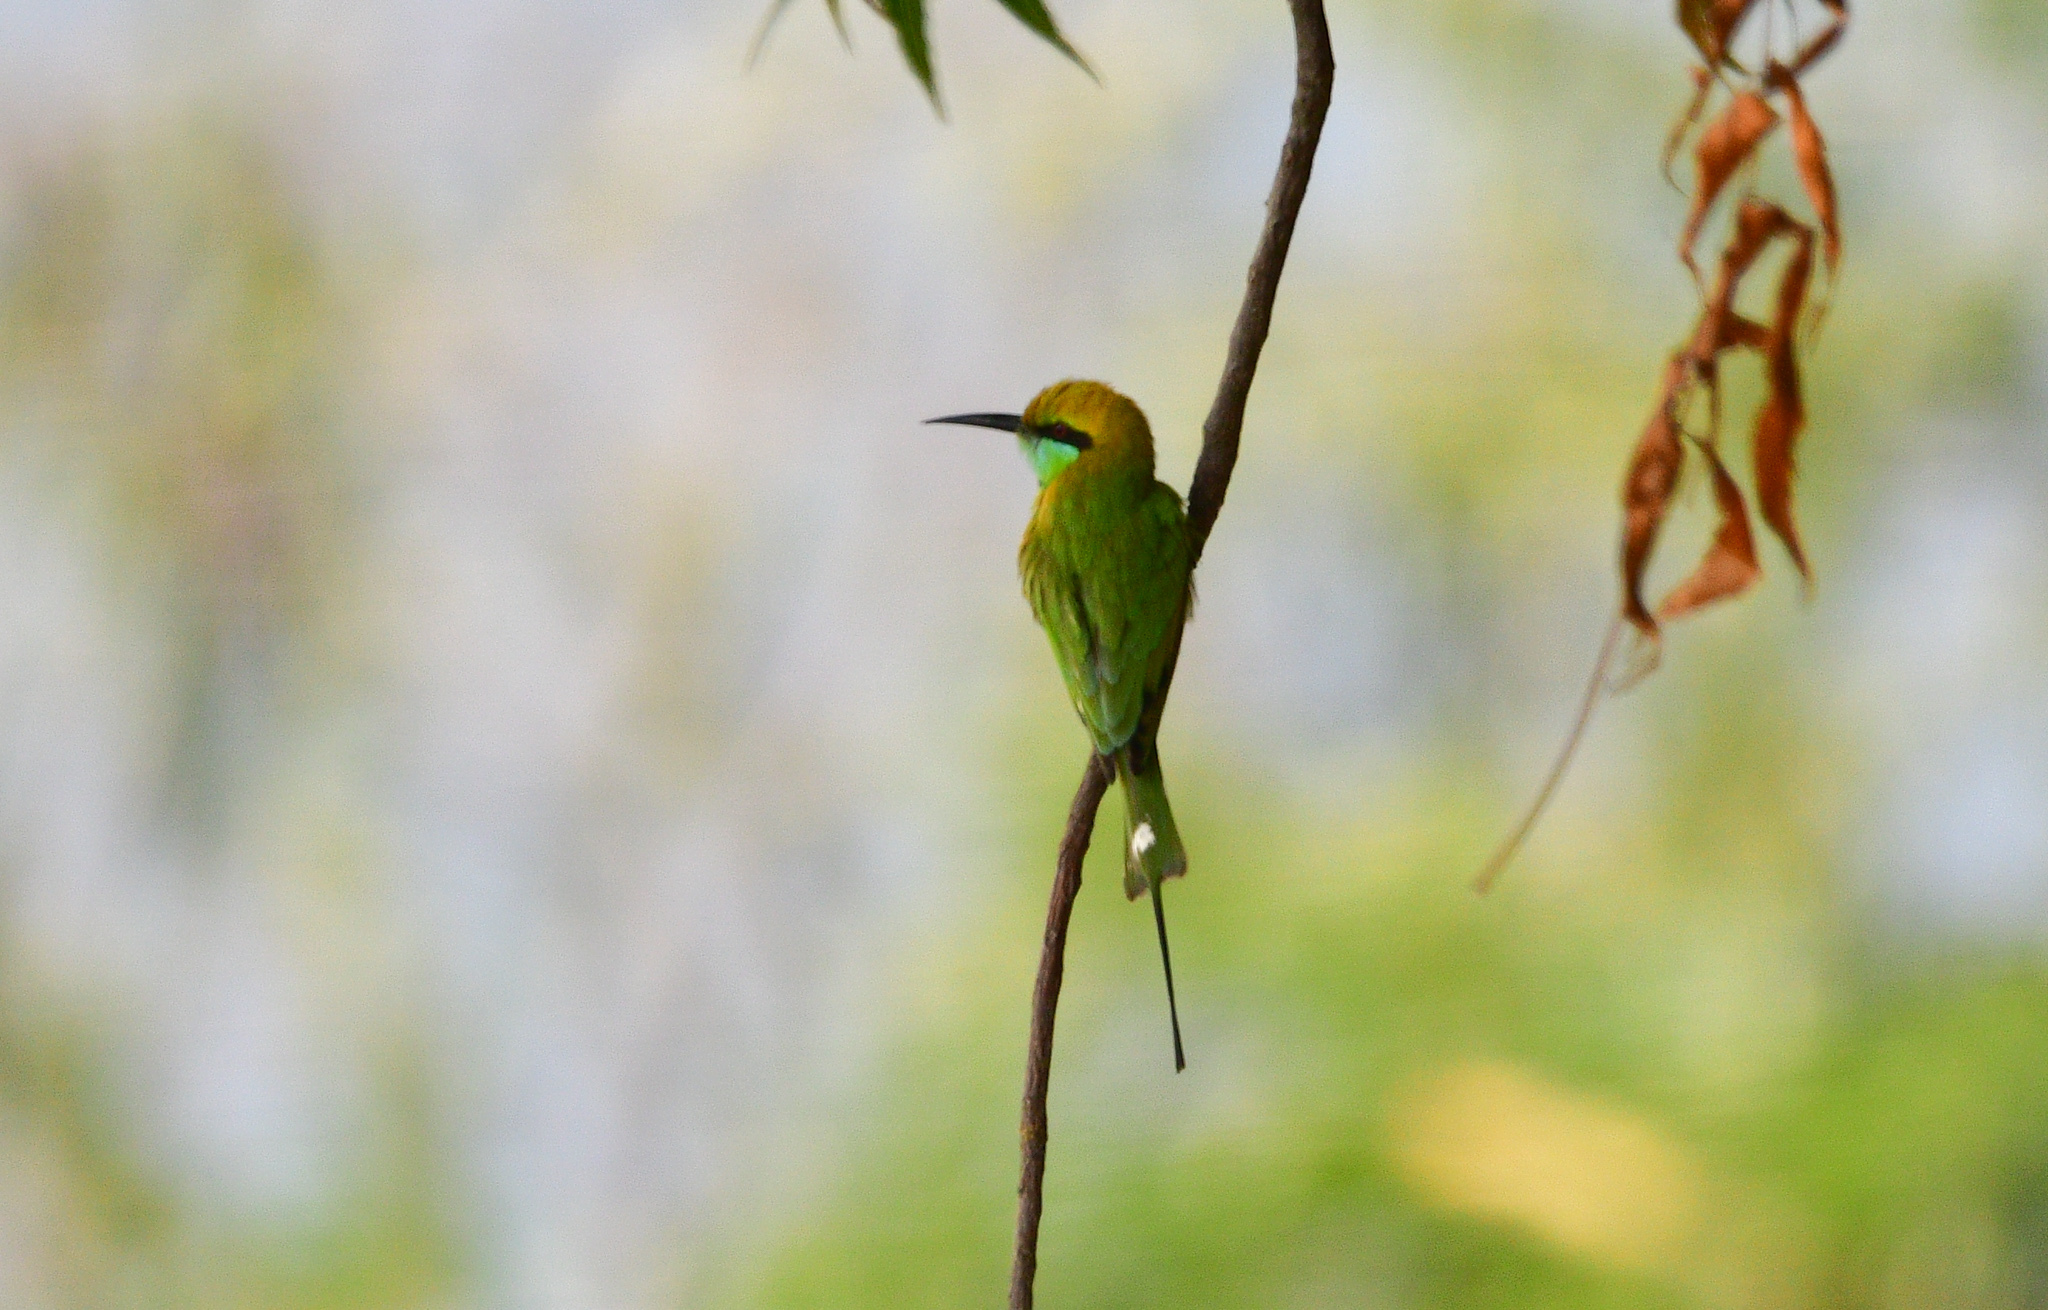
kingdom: Animalia
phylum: Chordata
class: Aves
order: Coraciiformes
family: Meropidae
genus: Merops
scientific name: Merops orientalis
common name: Green bee-eater
